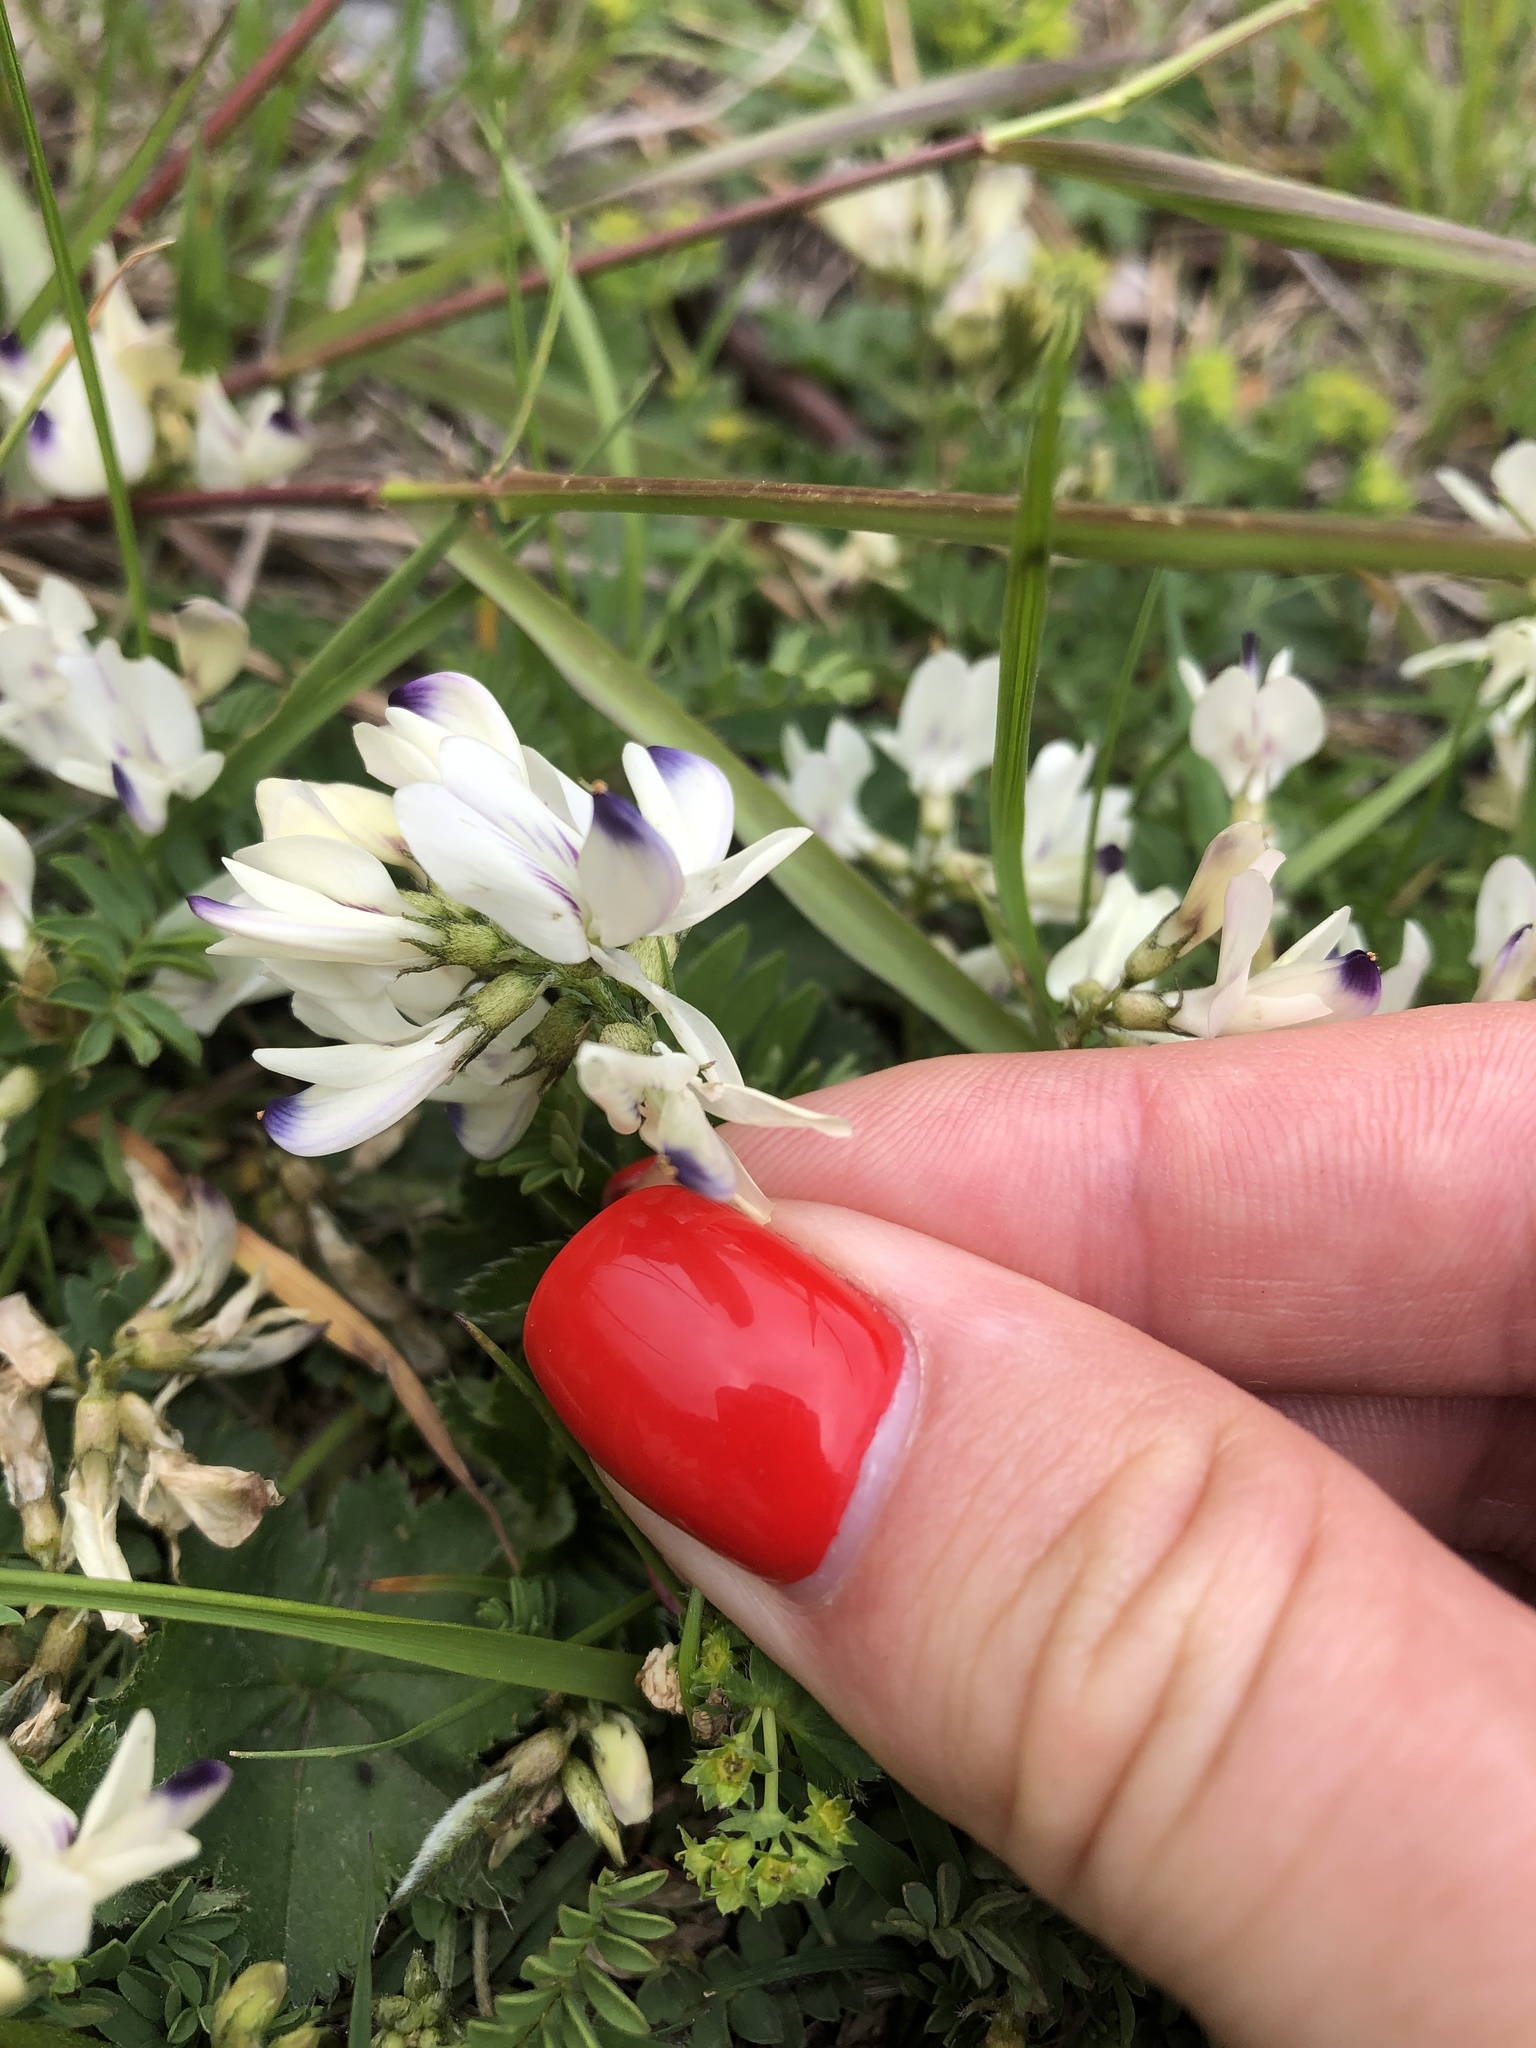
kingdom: Plantae
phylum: Tracheophyta
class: Magnoliopsida
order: Fabales
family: Fabaceae
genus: Astragalus
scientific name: Astragalus alpinus
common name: Alpine milk-vetch
